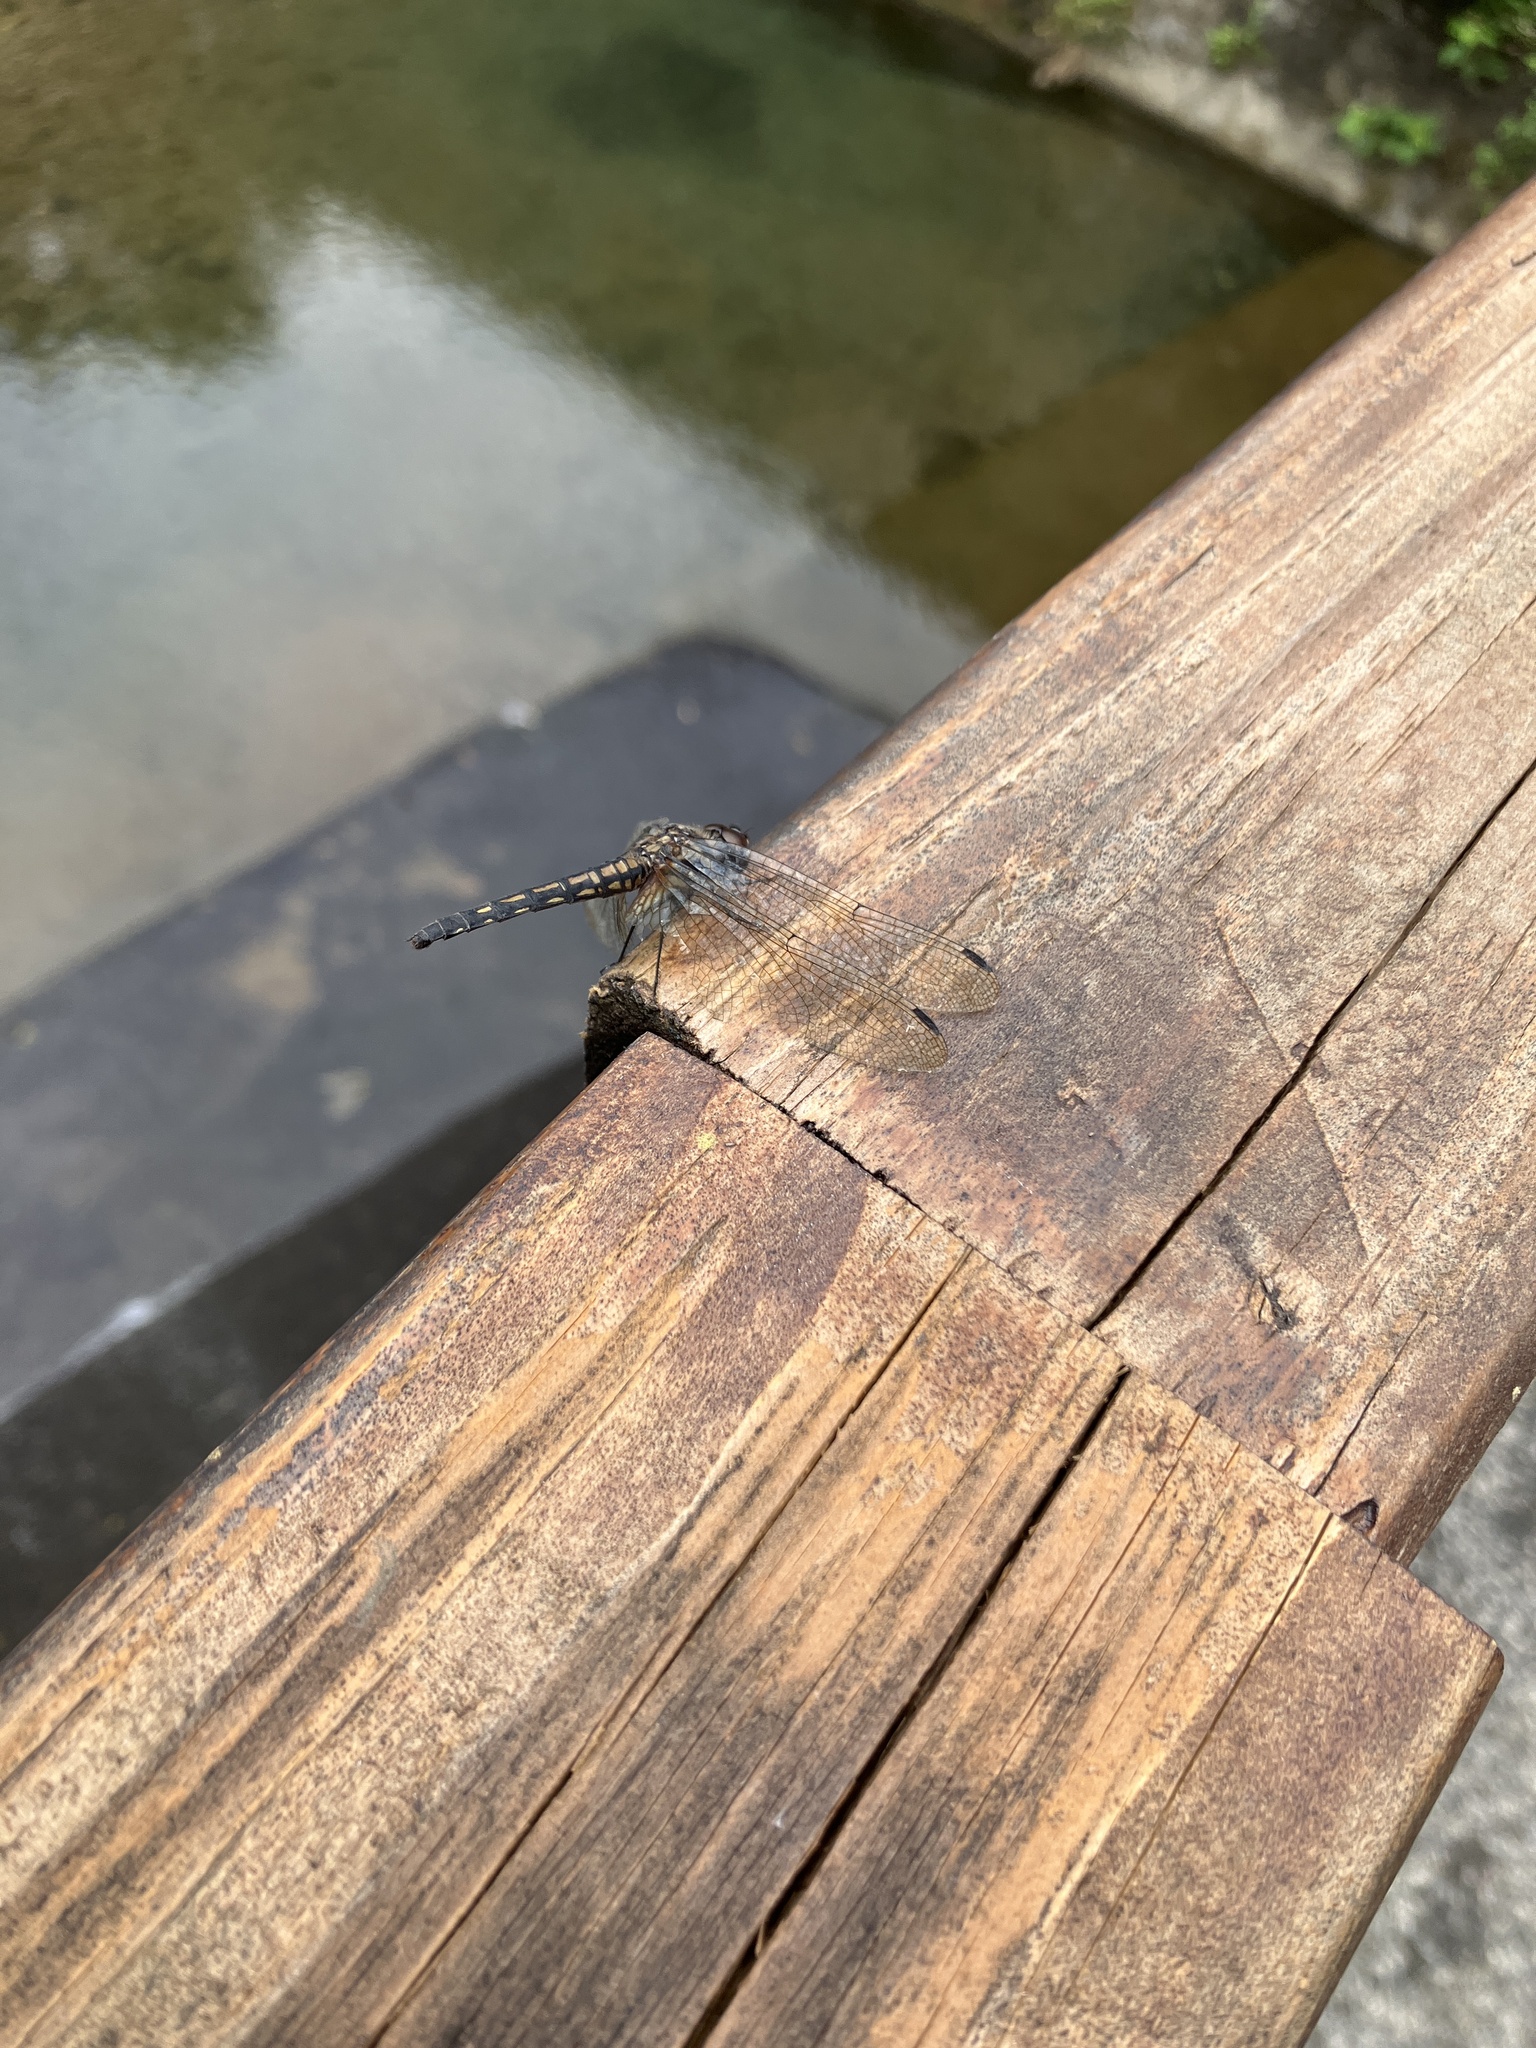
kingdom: Animalia
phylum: Arthropoda
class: Insecta
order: Odonata
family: Libellulidae
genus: Trithemis
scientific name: Trithemis festiva
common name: Indigo dropwing
